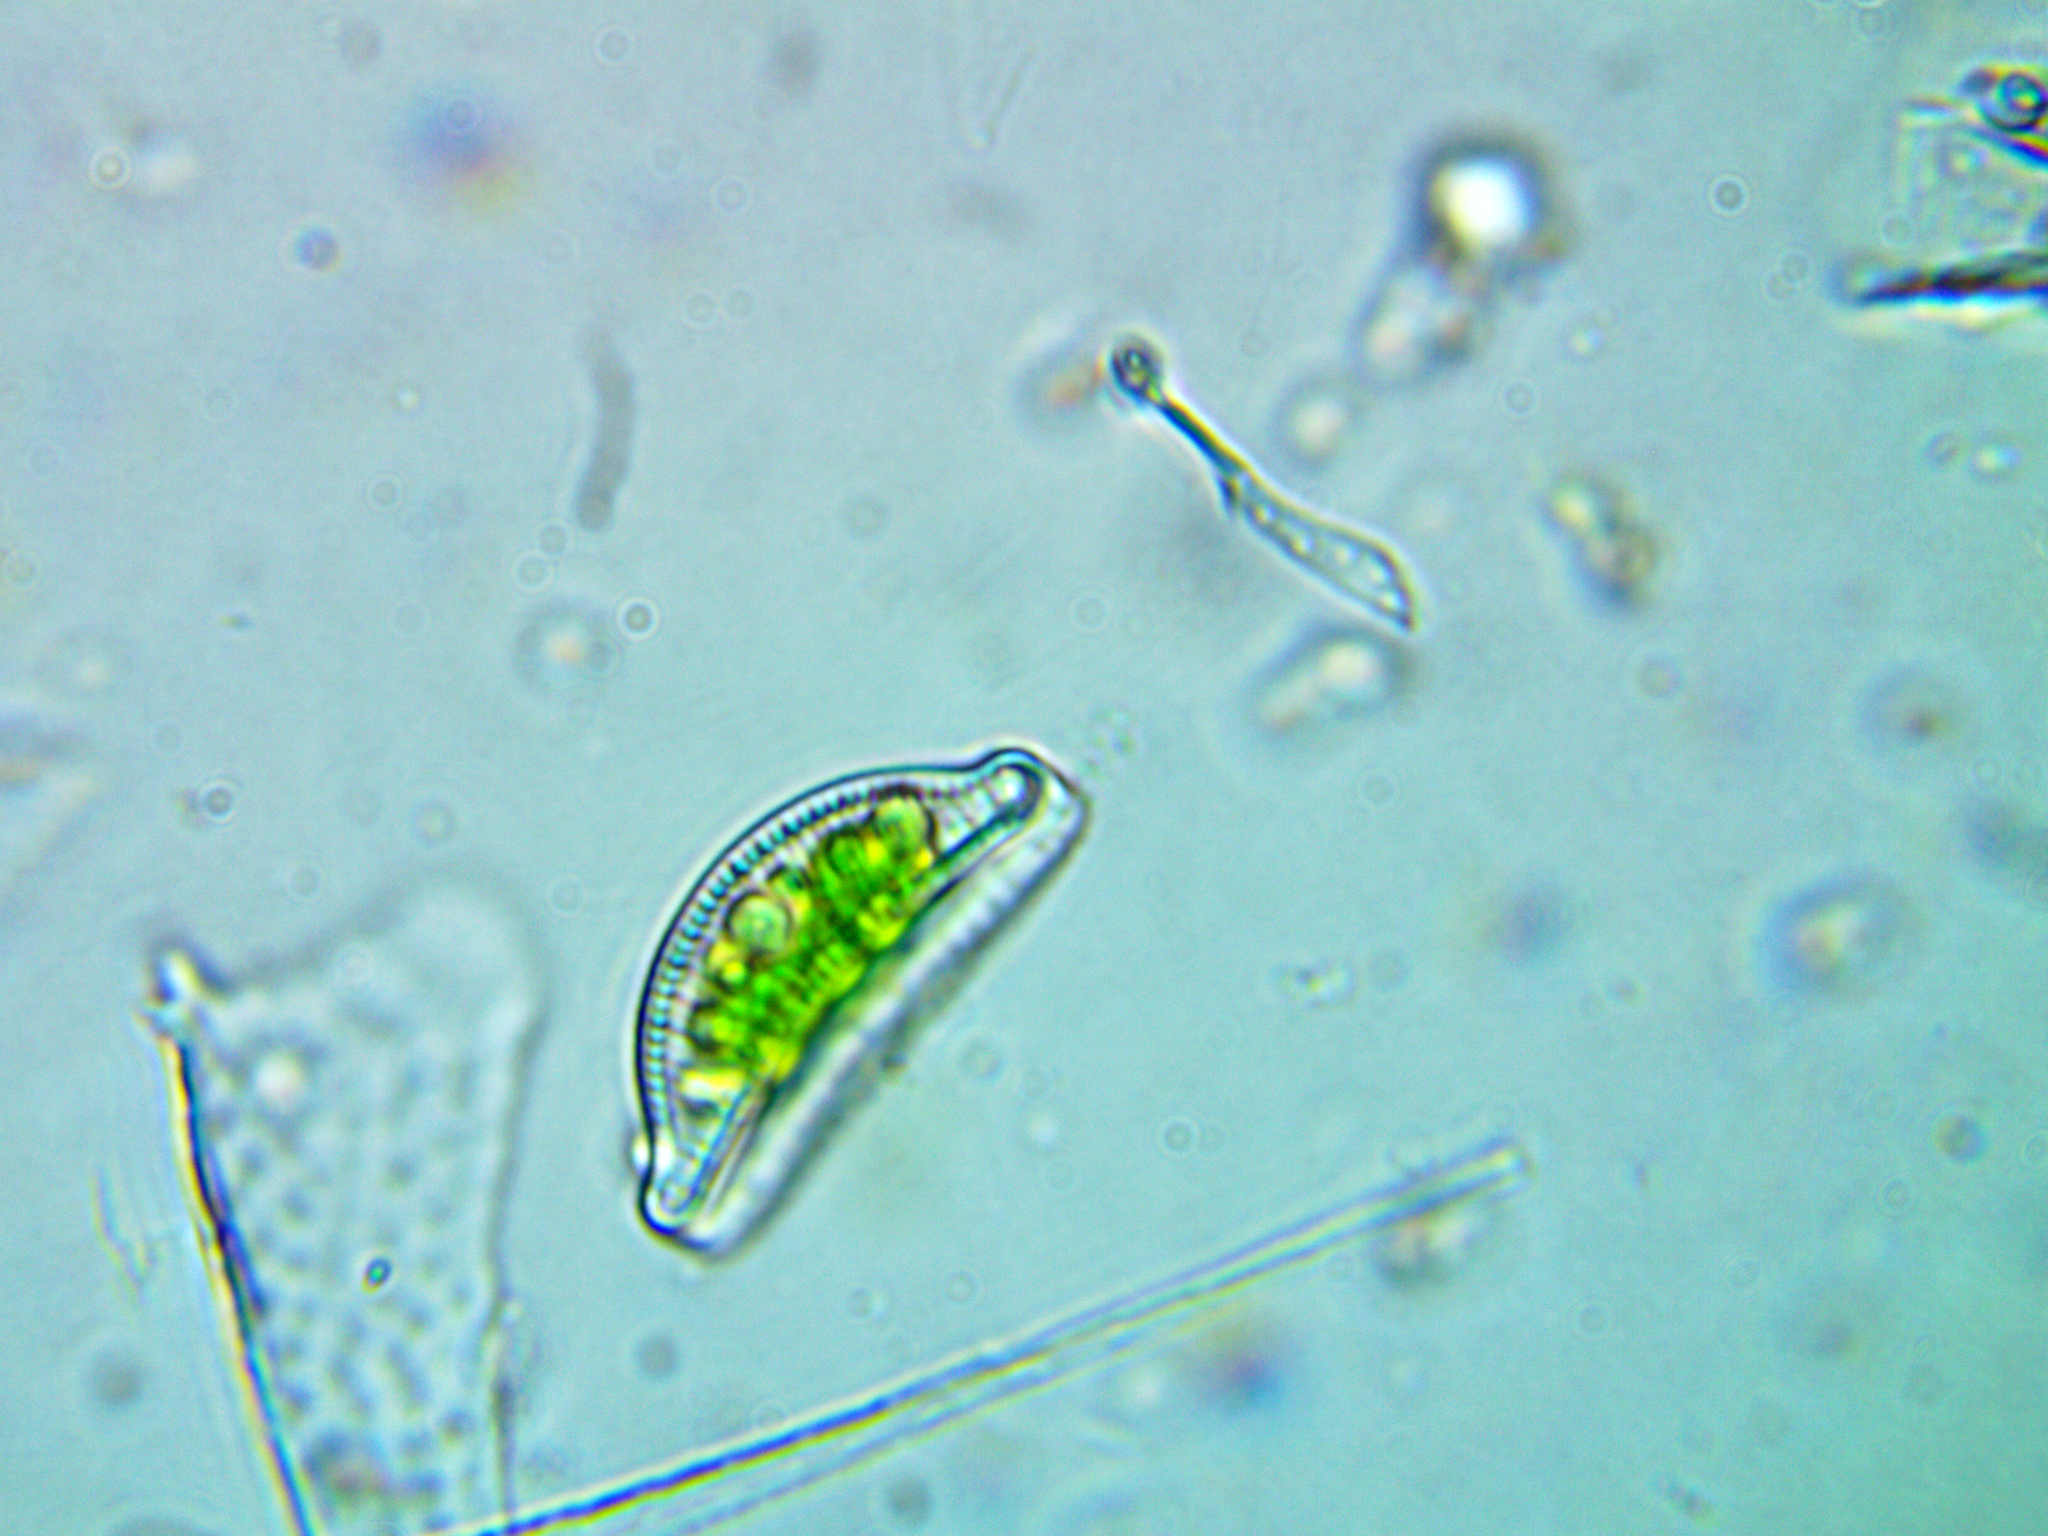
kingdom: Chromista
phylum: Ochrophyta
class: Bacillariophyceae
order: Rhopalodiales
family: Rhopalodiaceae
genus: Epithemia
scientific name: Epithemia sorex
